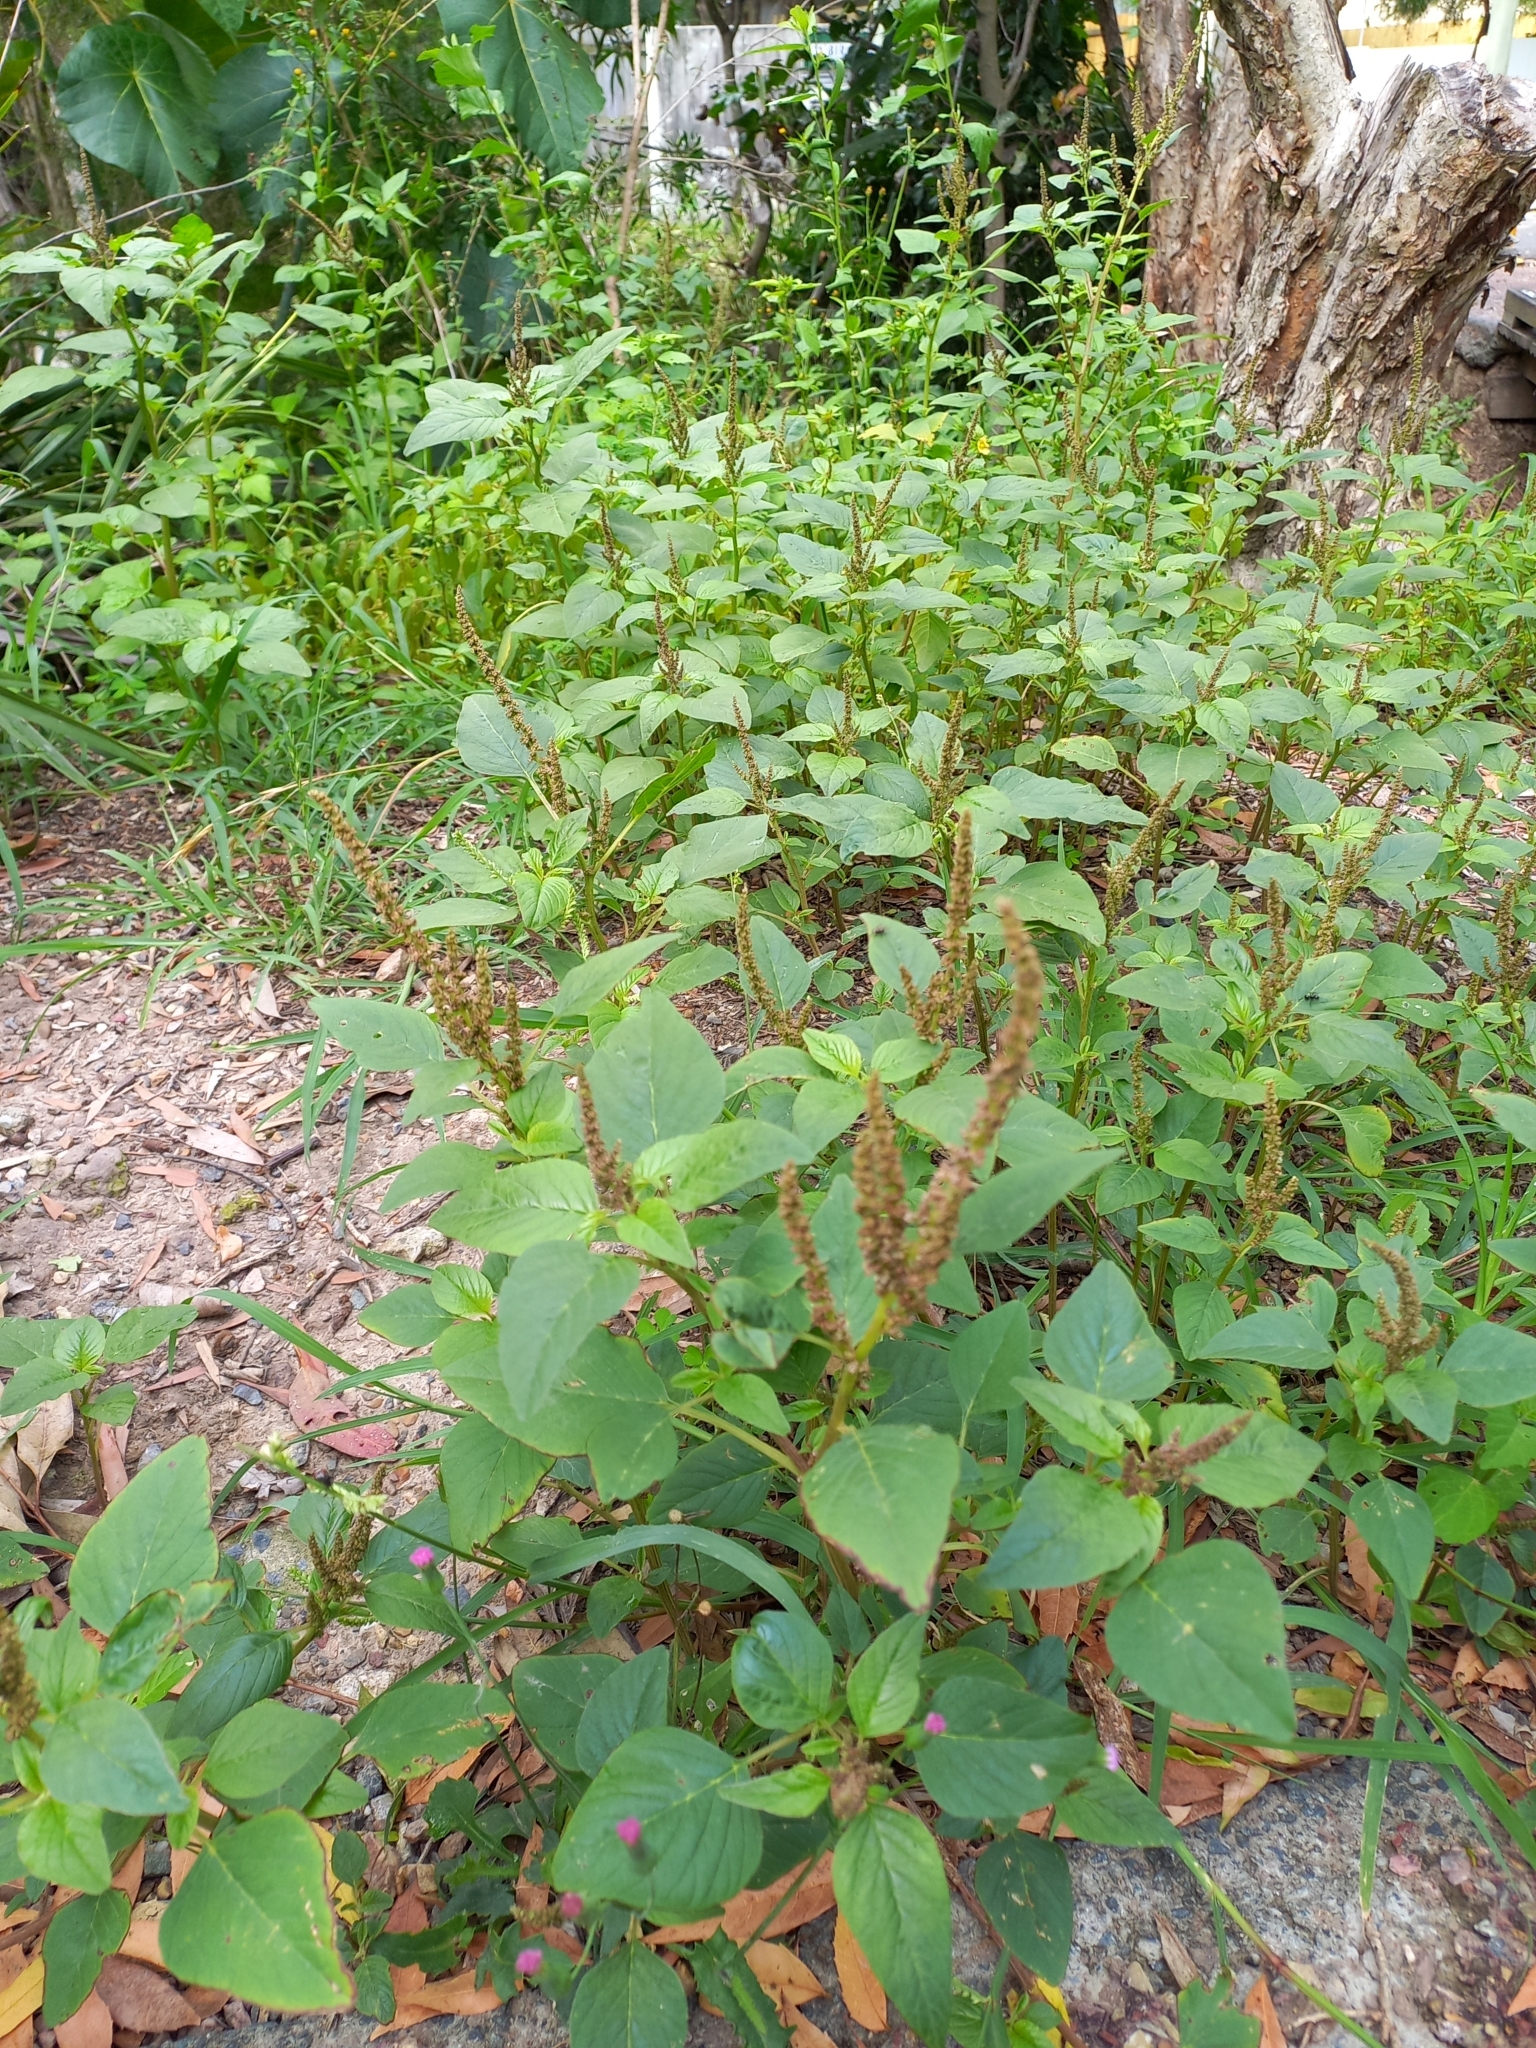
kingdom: Plantae
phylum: Tracheophyta
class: Magnoliopsida
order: Caryophyllales
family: Amaranthaceae
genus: Amaranthus
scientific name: Amaranthus viridis
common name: Slender amaranth
